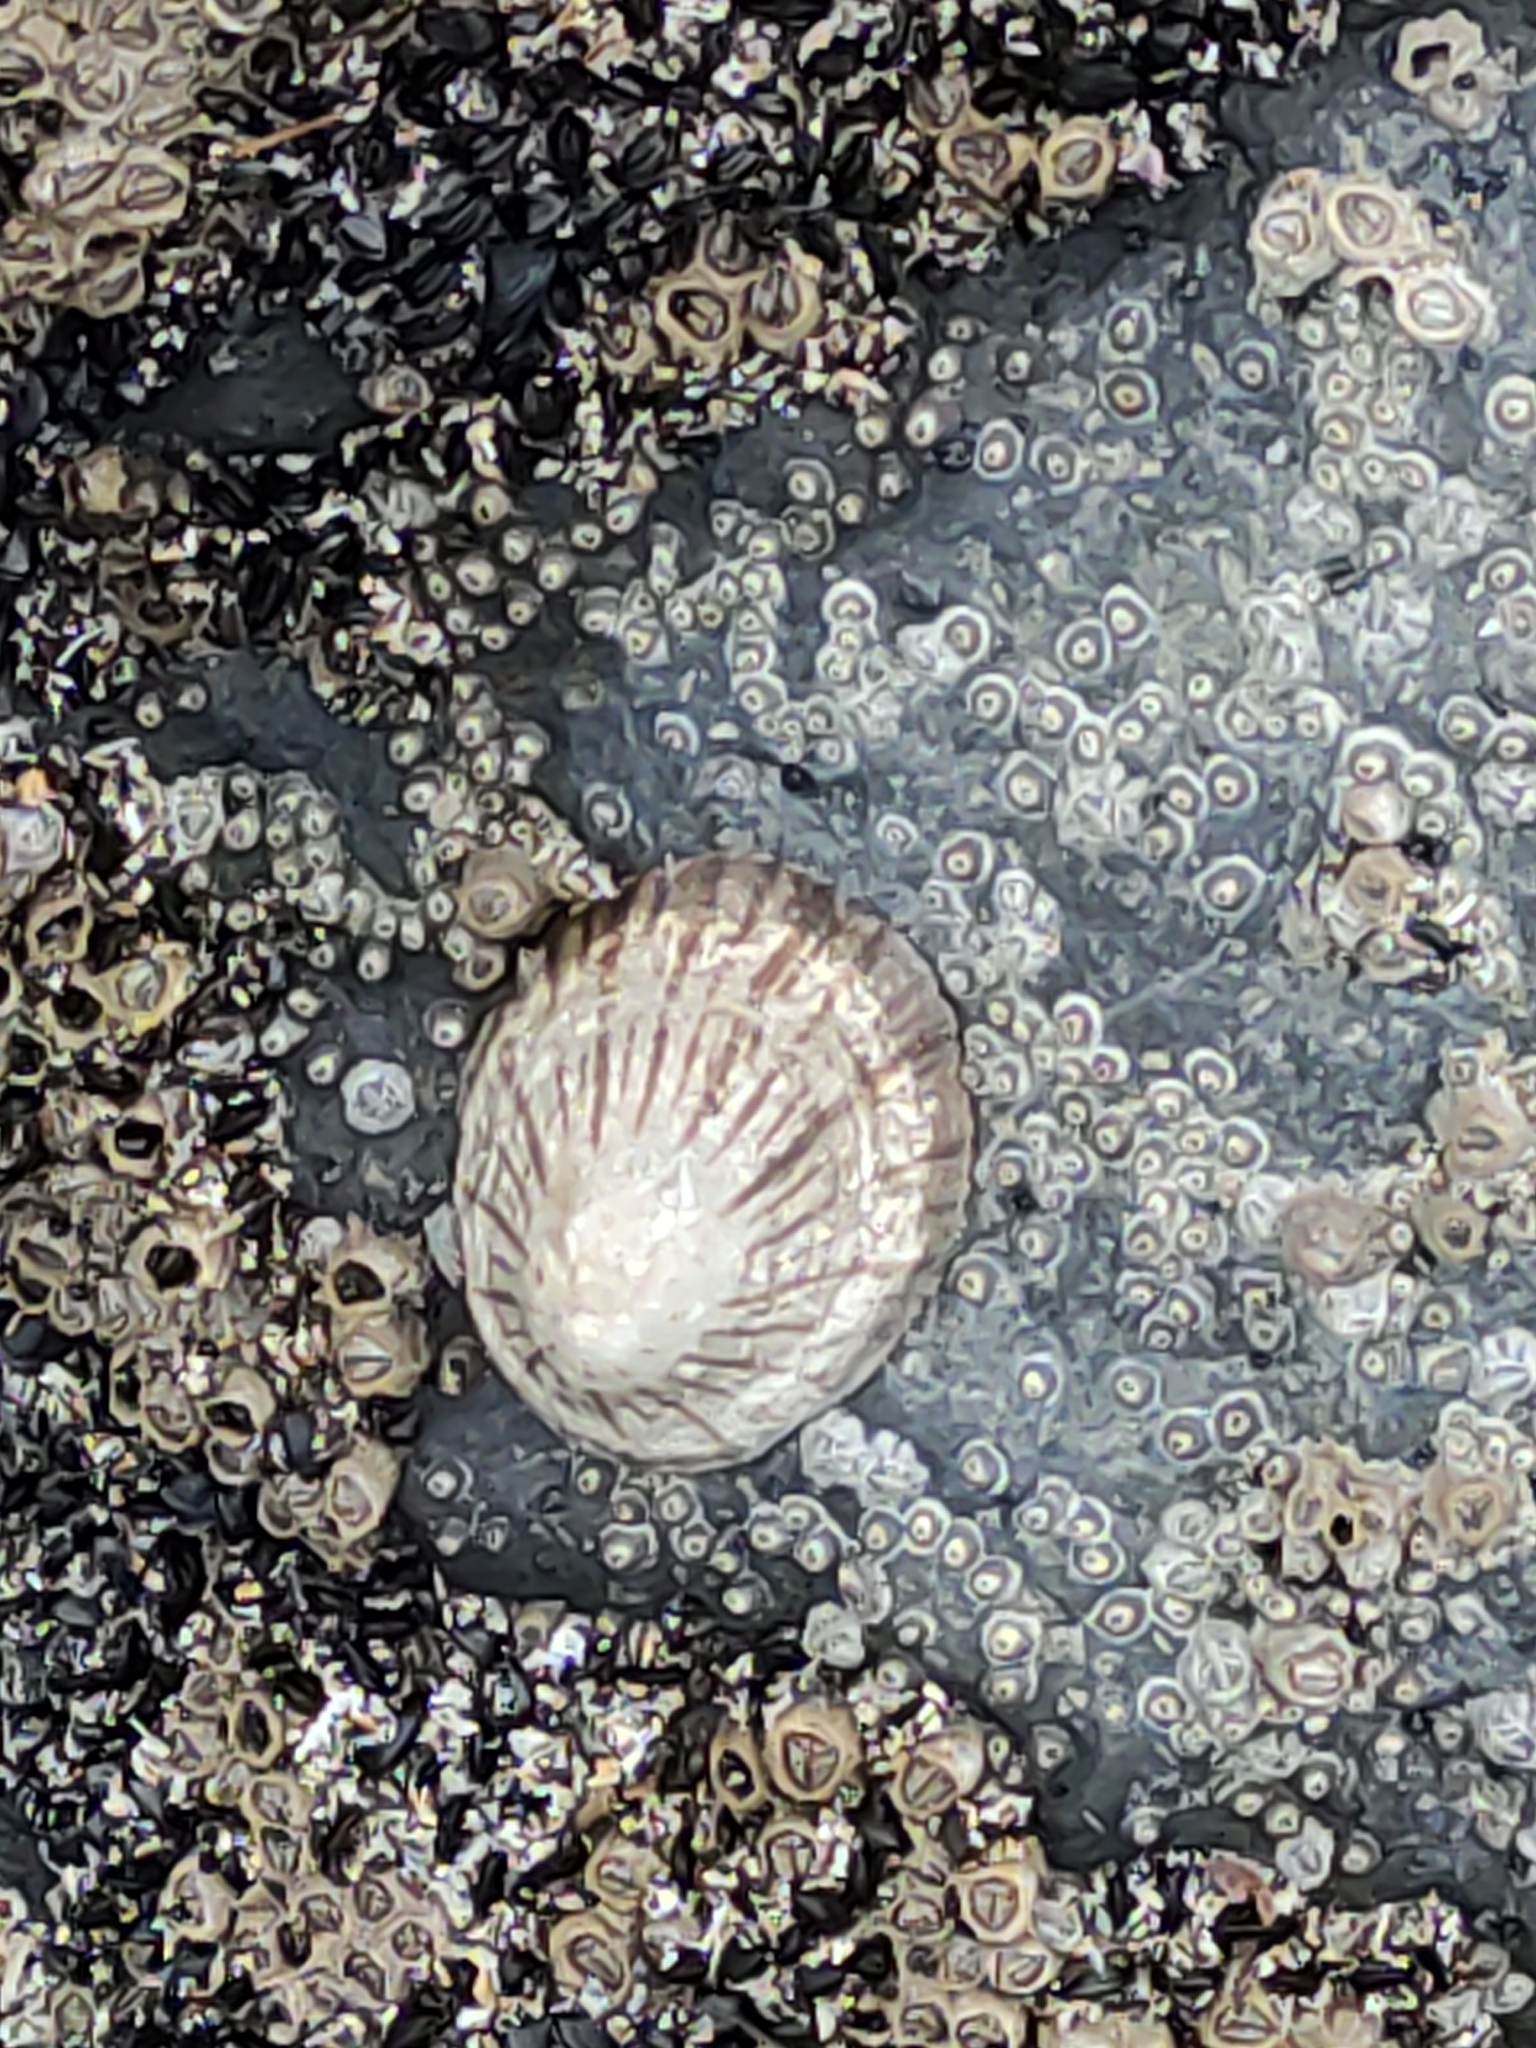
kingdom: Animalia
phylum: Mollusca
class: Gastropoda
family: Nacellidae
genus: Cellana
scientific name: Cellana radians
